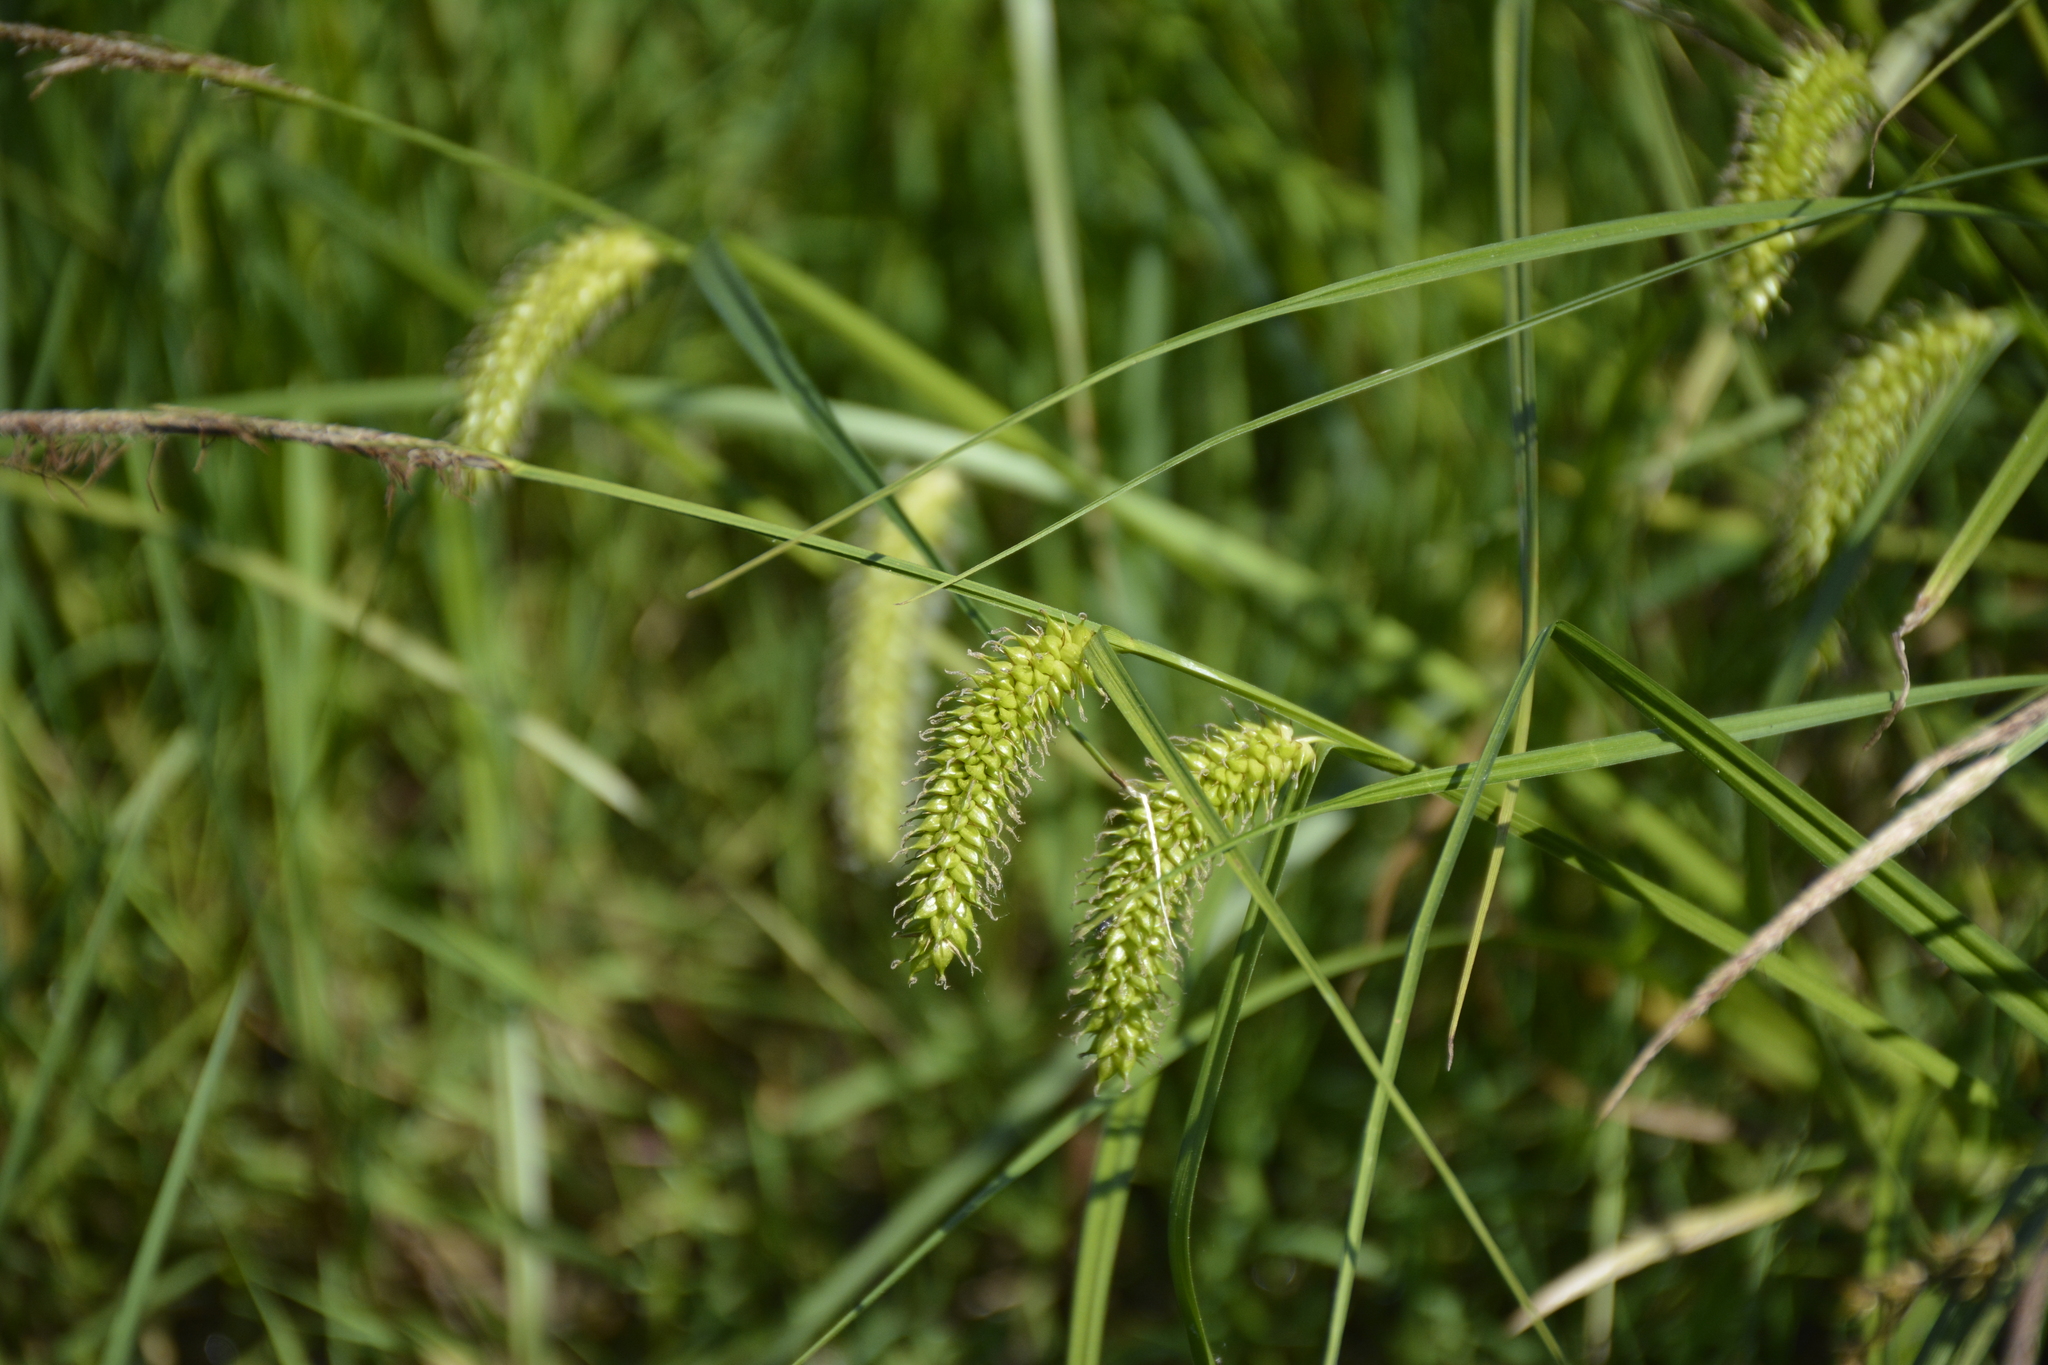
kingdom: Plantae
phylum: Tracheophyta
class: Liliopsida
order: Poales
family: Cyperaceae
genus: Carex
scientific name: Carex vesicaria
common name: Bladder-sedge
